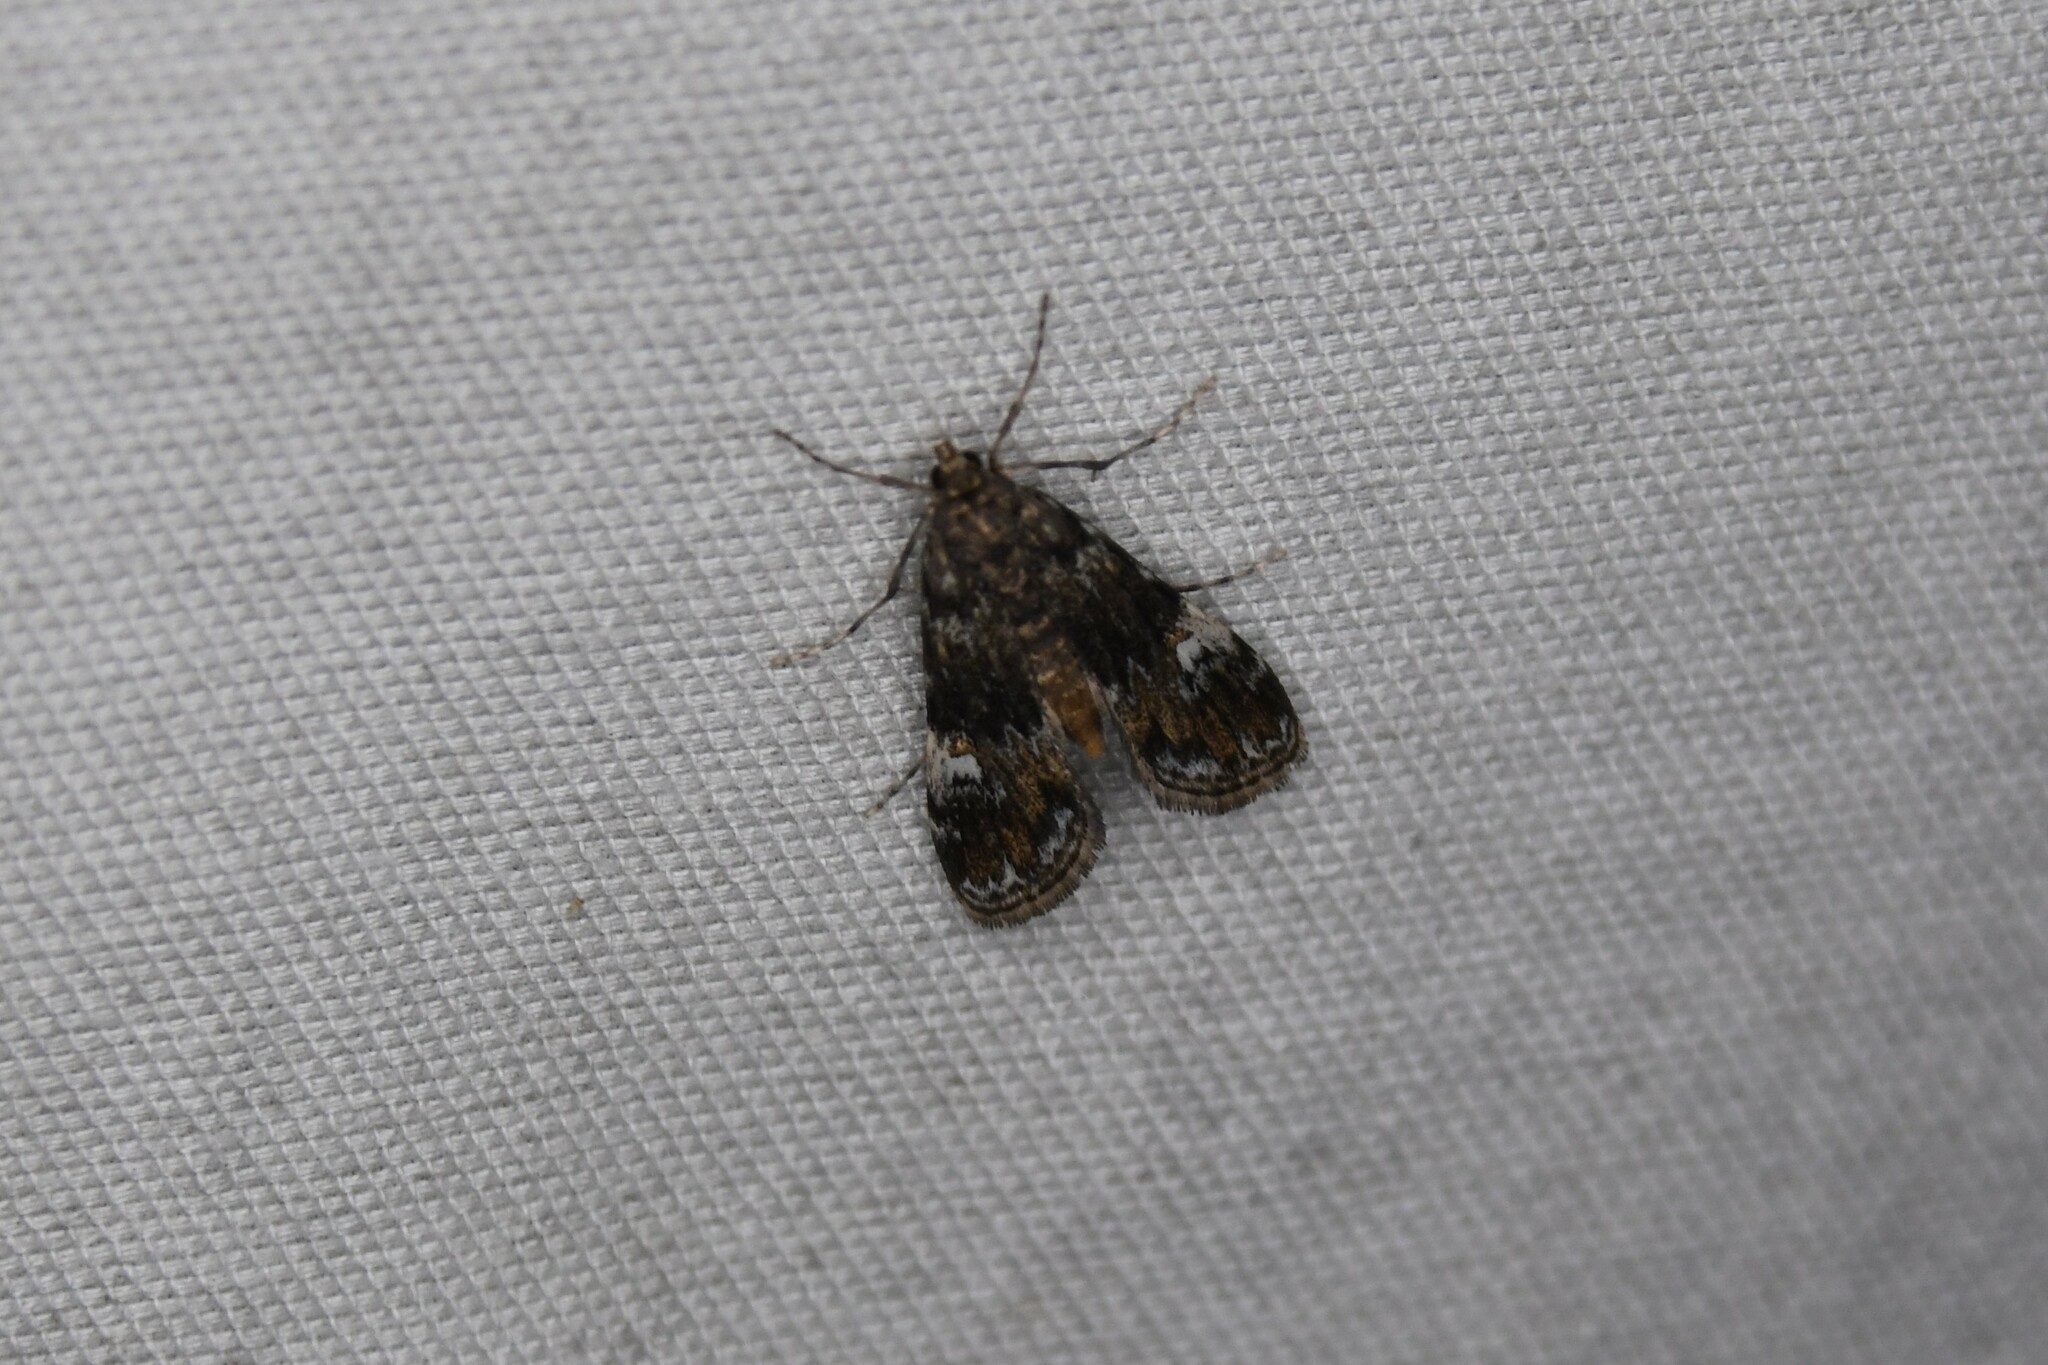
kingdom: Animalia
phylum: Arthropoda
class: Insecta
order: Lepidoptera
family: Crambidae
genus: Elophila
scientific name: Elophila obliteralis
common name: Waterlily leafcutter moth
